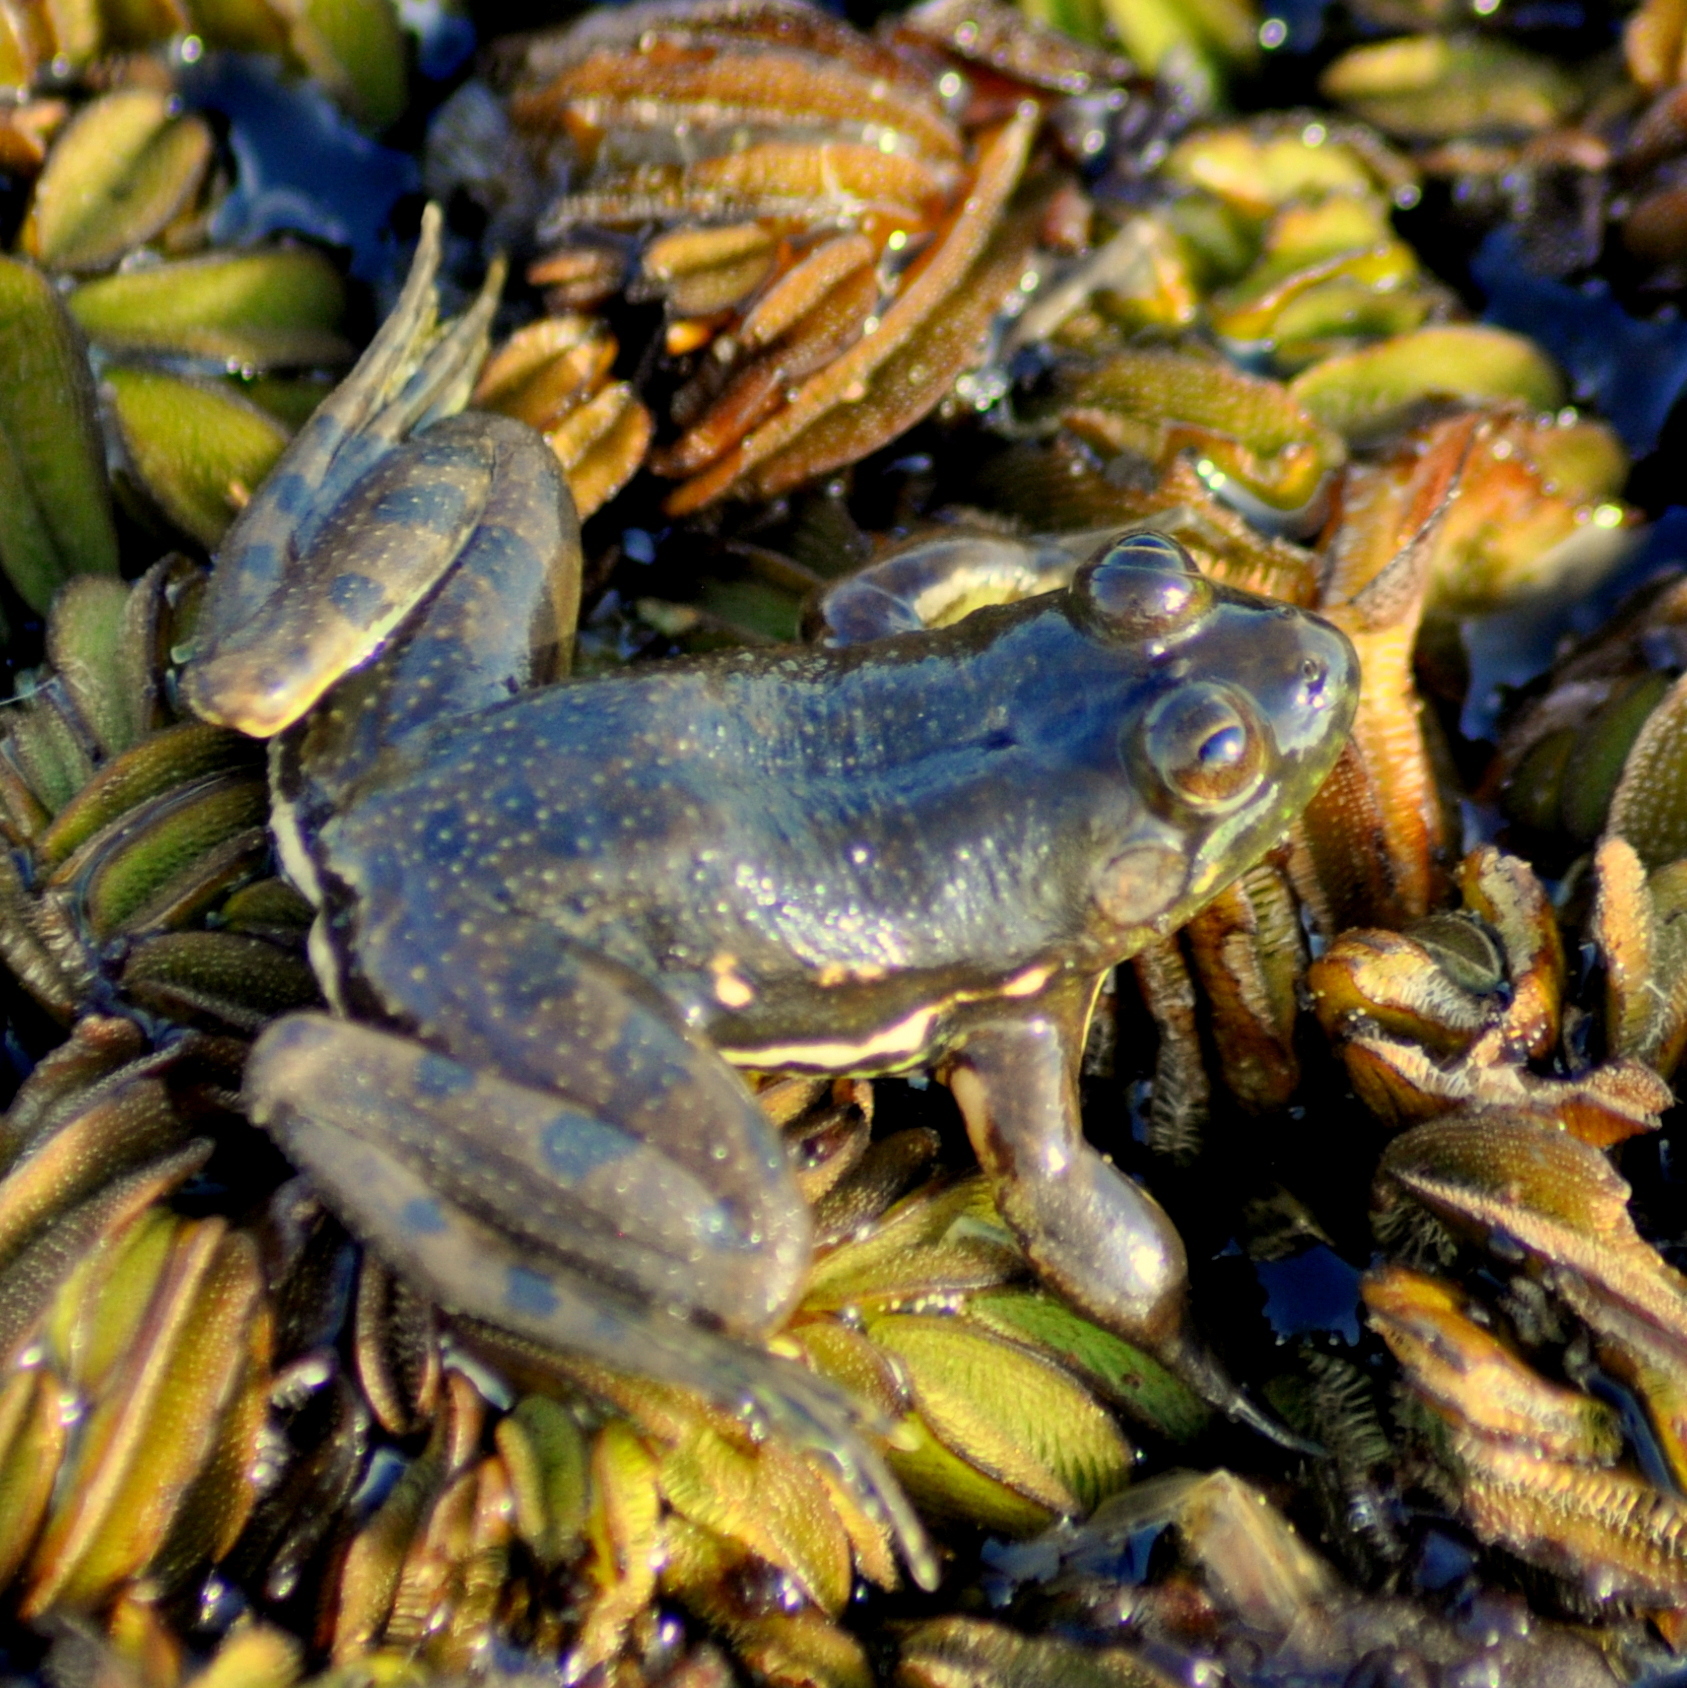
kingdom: Animalia
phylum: Chordata
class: Amphibia
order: Anura
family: Hylidae
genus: Pseudis
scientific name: Pseudis minuta
